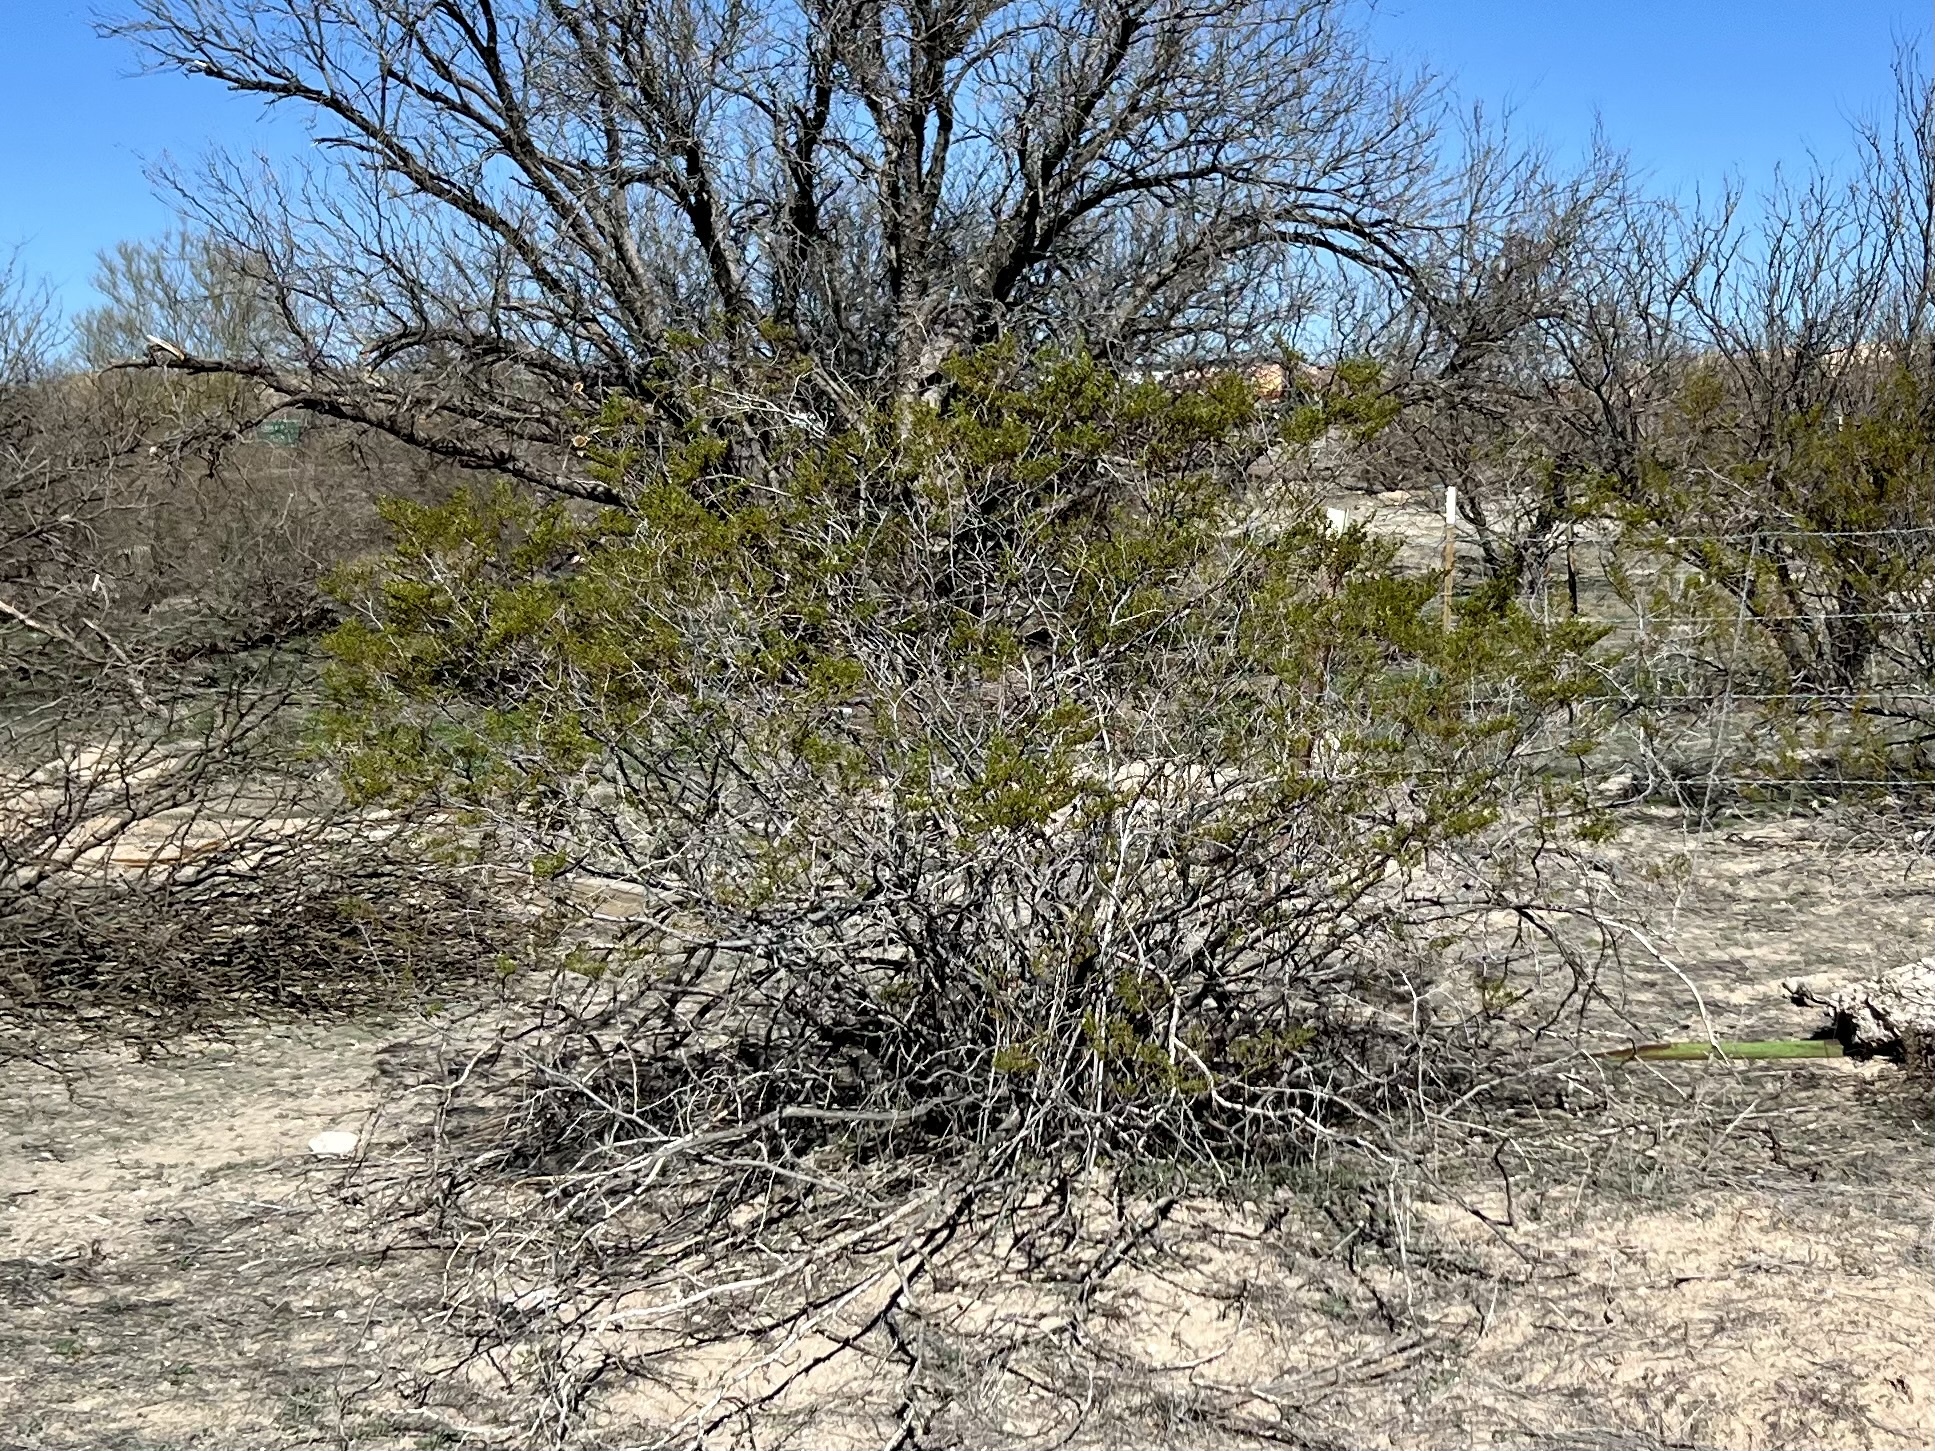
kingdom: Plantae
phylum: Tracheophyta
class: Magnoliopsida
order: Zygophyllales
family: Zygophyllaceae
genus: Larrea
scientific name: Larrea tridentata
